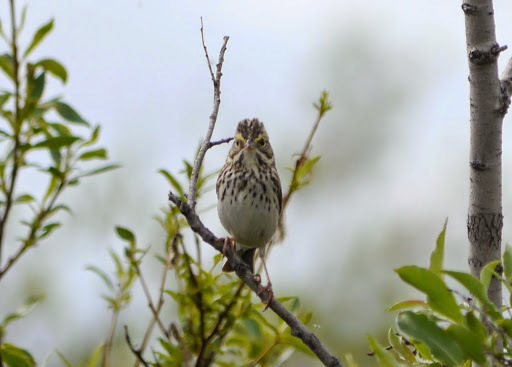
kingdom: Animalia
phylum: Chordata
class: Aves
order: Passeriformes
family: Passerellidae
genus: Passerculus
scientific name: Passerculus sandwichensis
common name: Savannah sparrow
